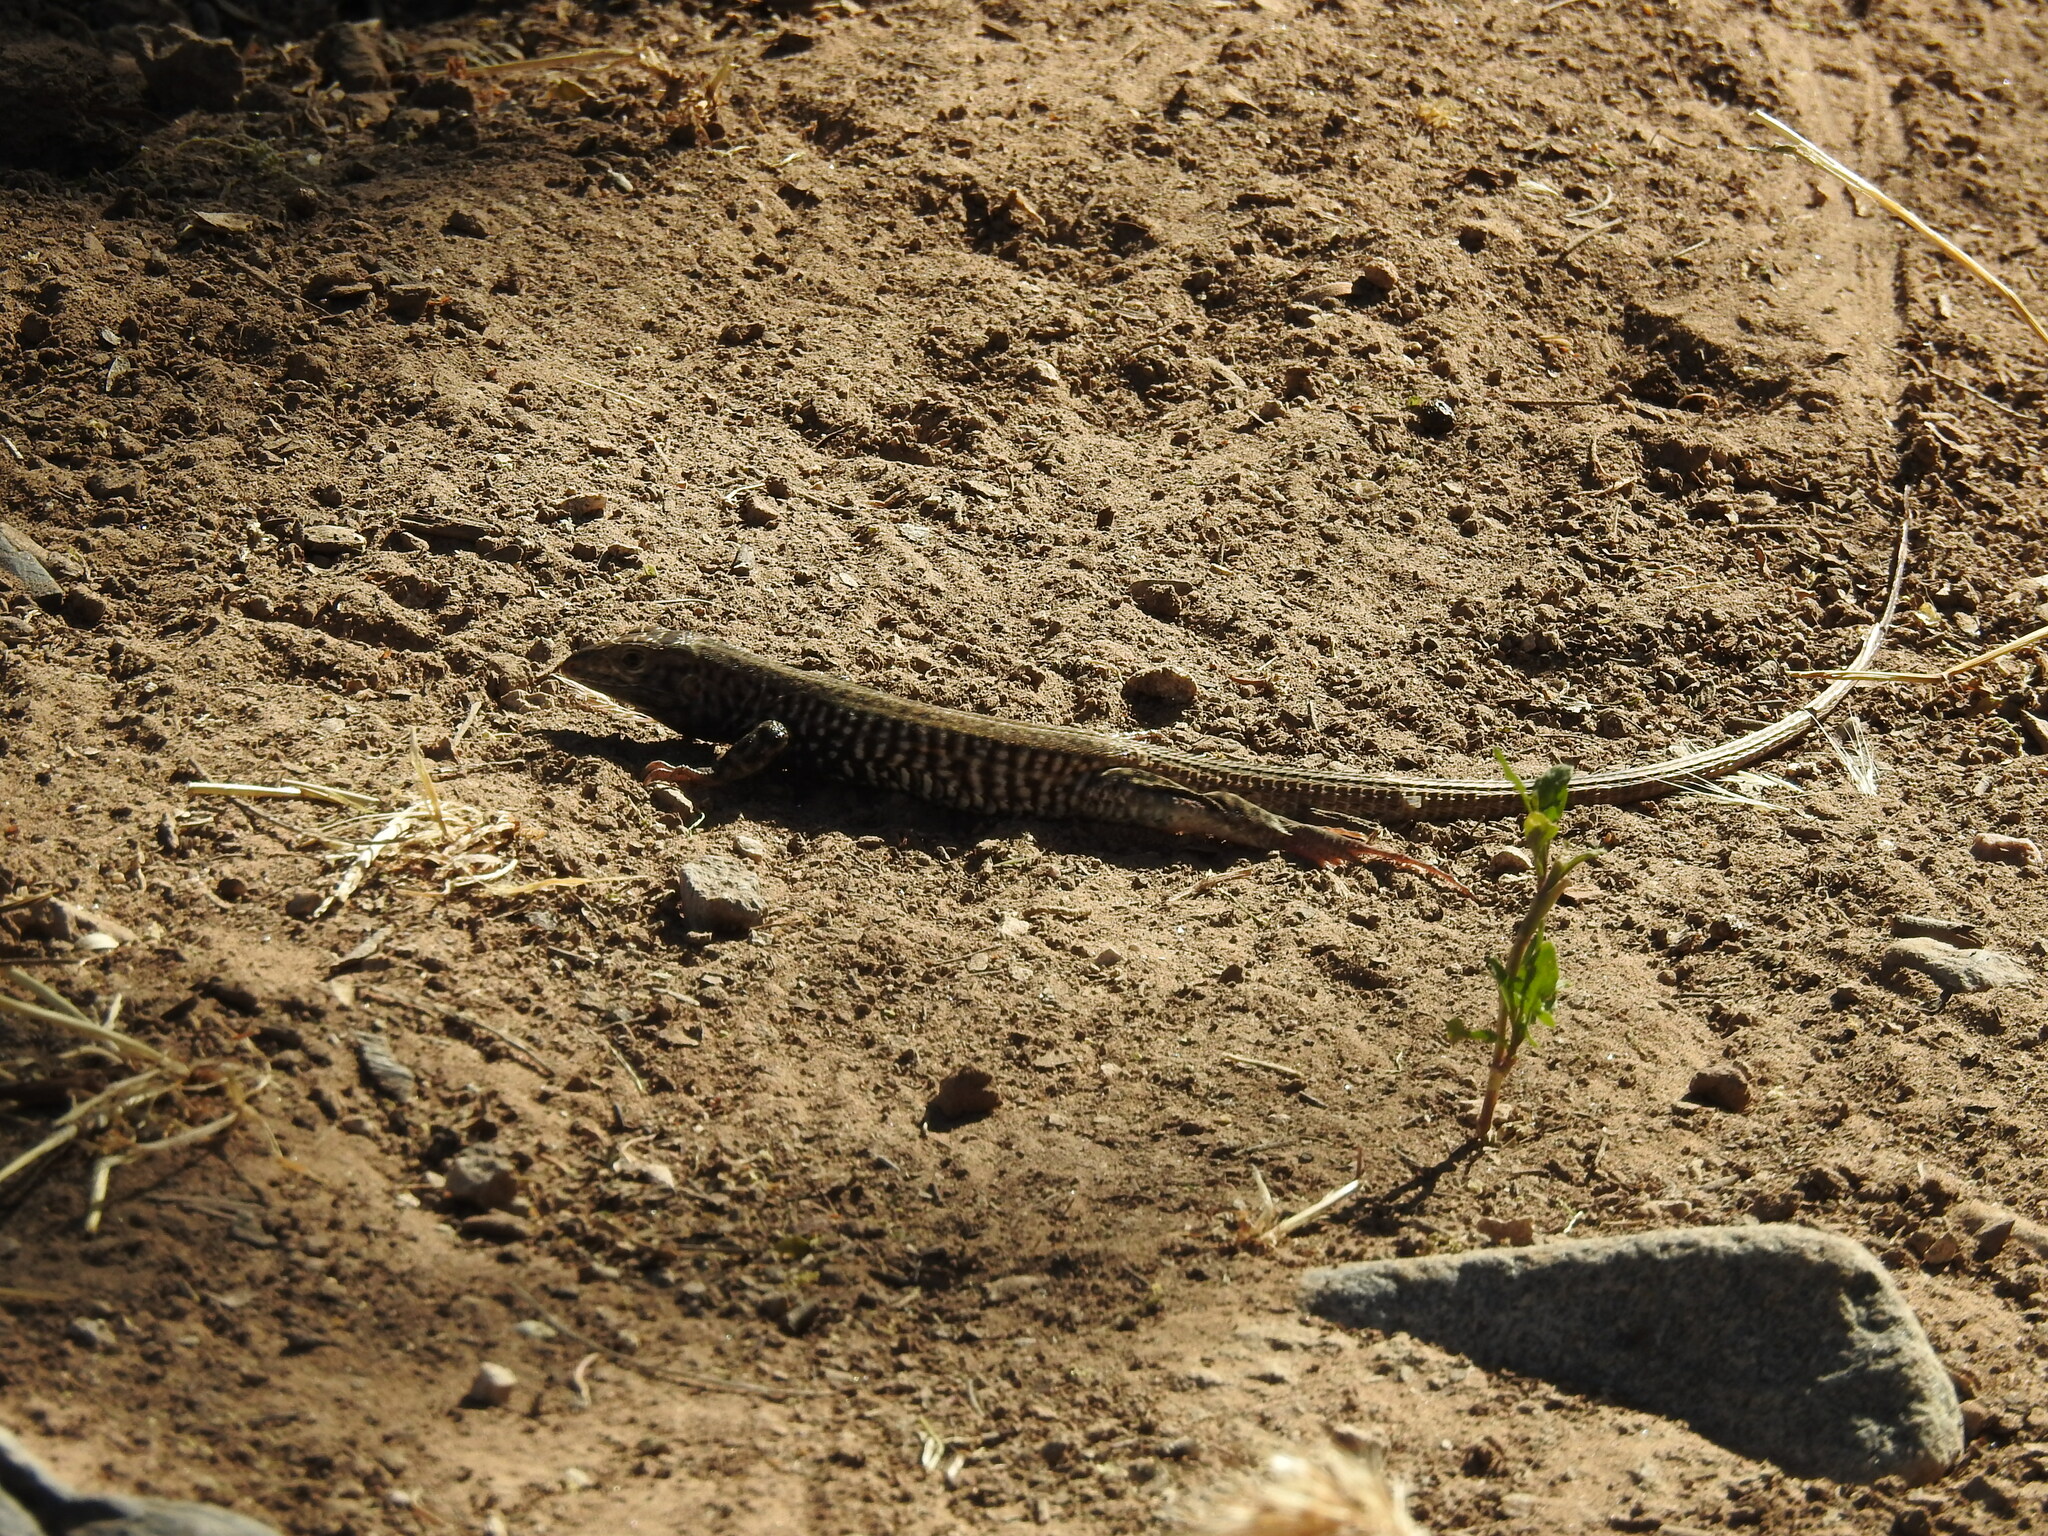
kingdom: Animalia
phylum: Chordata
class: Squamata
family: Teiidae
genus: Aspidoscelis
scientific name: Aspidoscelis tigris
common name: Tiger whiptail
